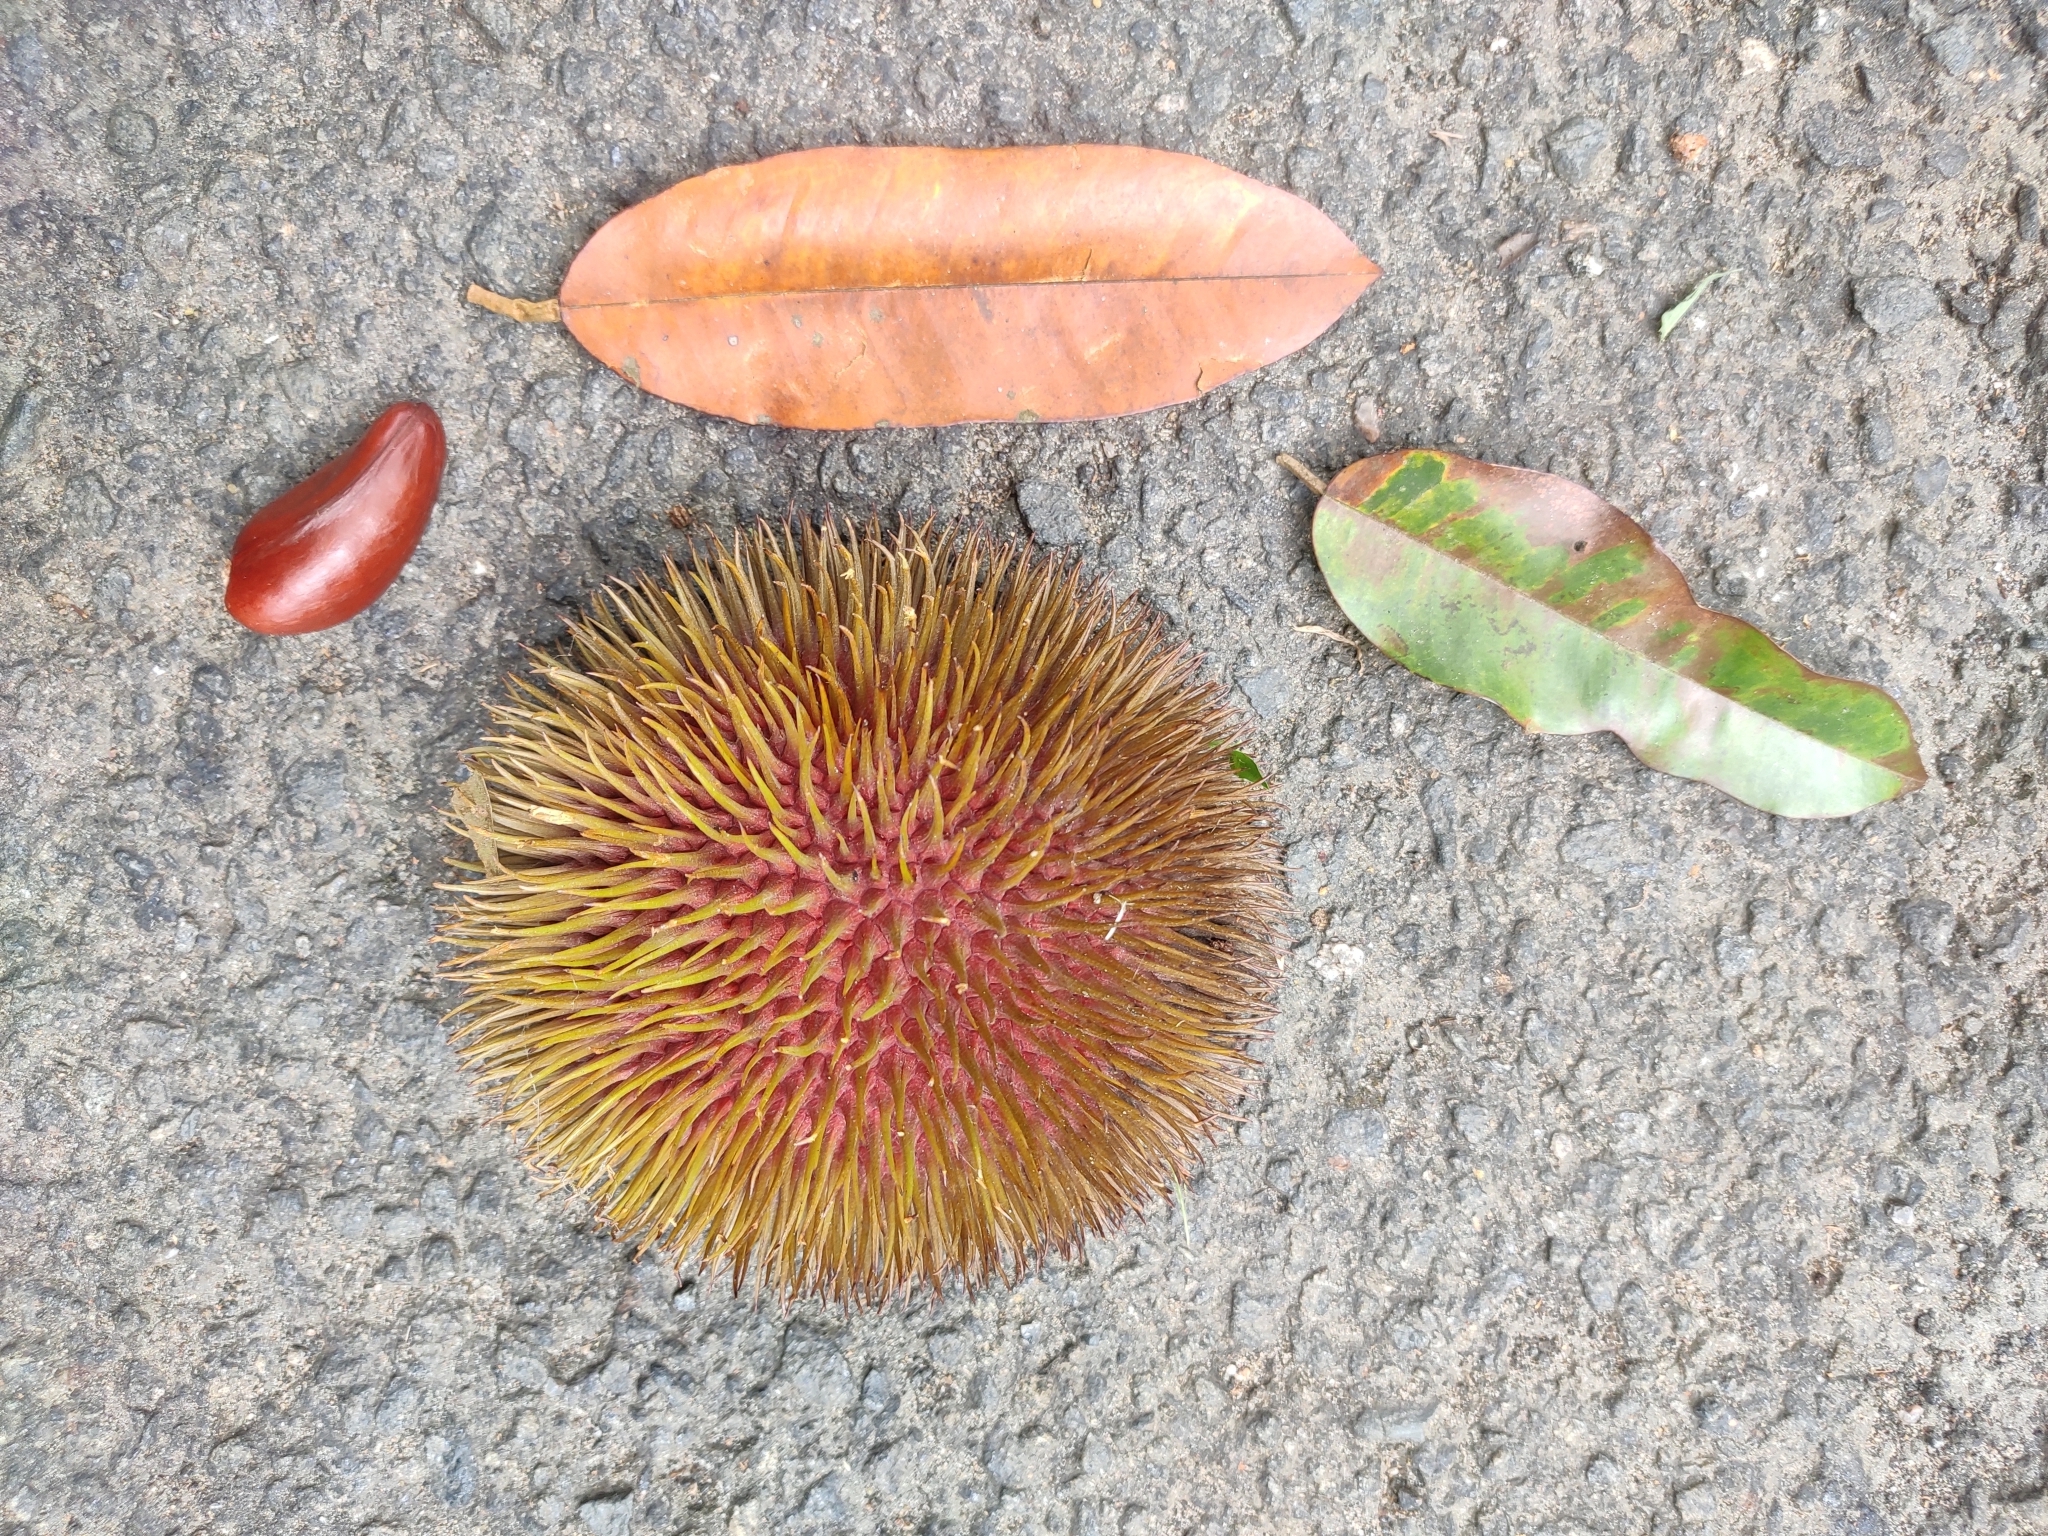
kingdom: Plantae
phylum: Tracheophyta
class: Magnoliopsida
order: Malvales
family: Malvaceae
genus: Cullenia
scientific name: Cullenia exarillata
